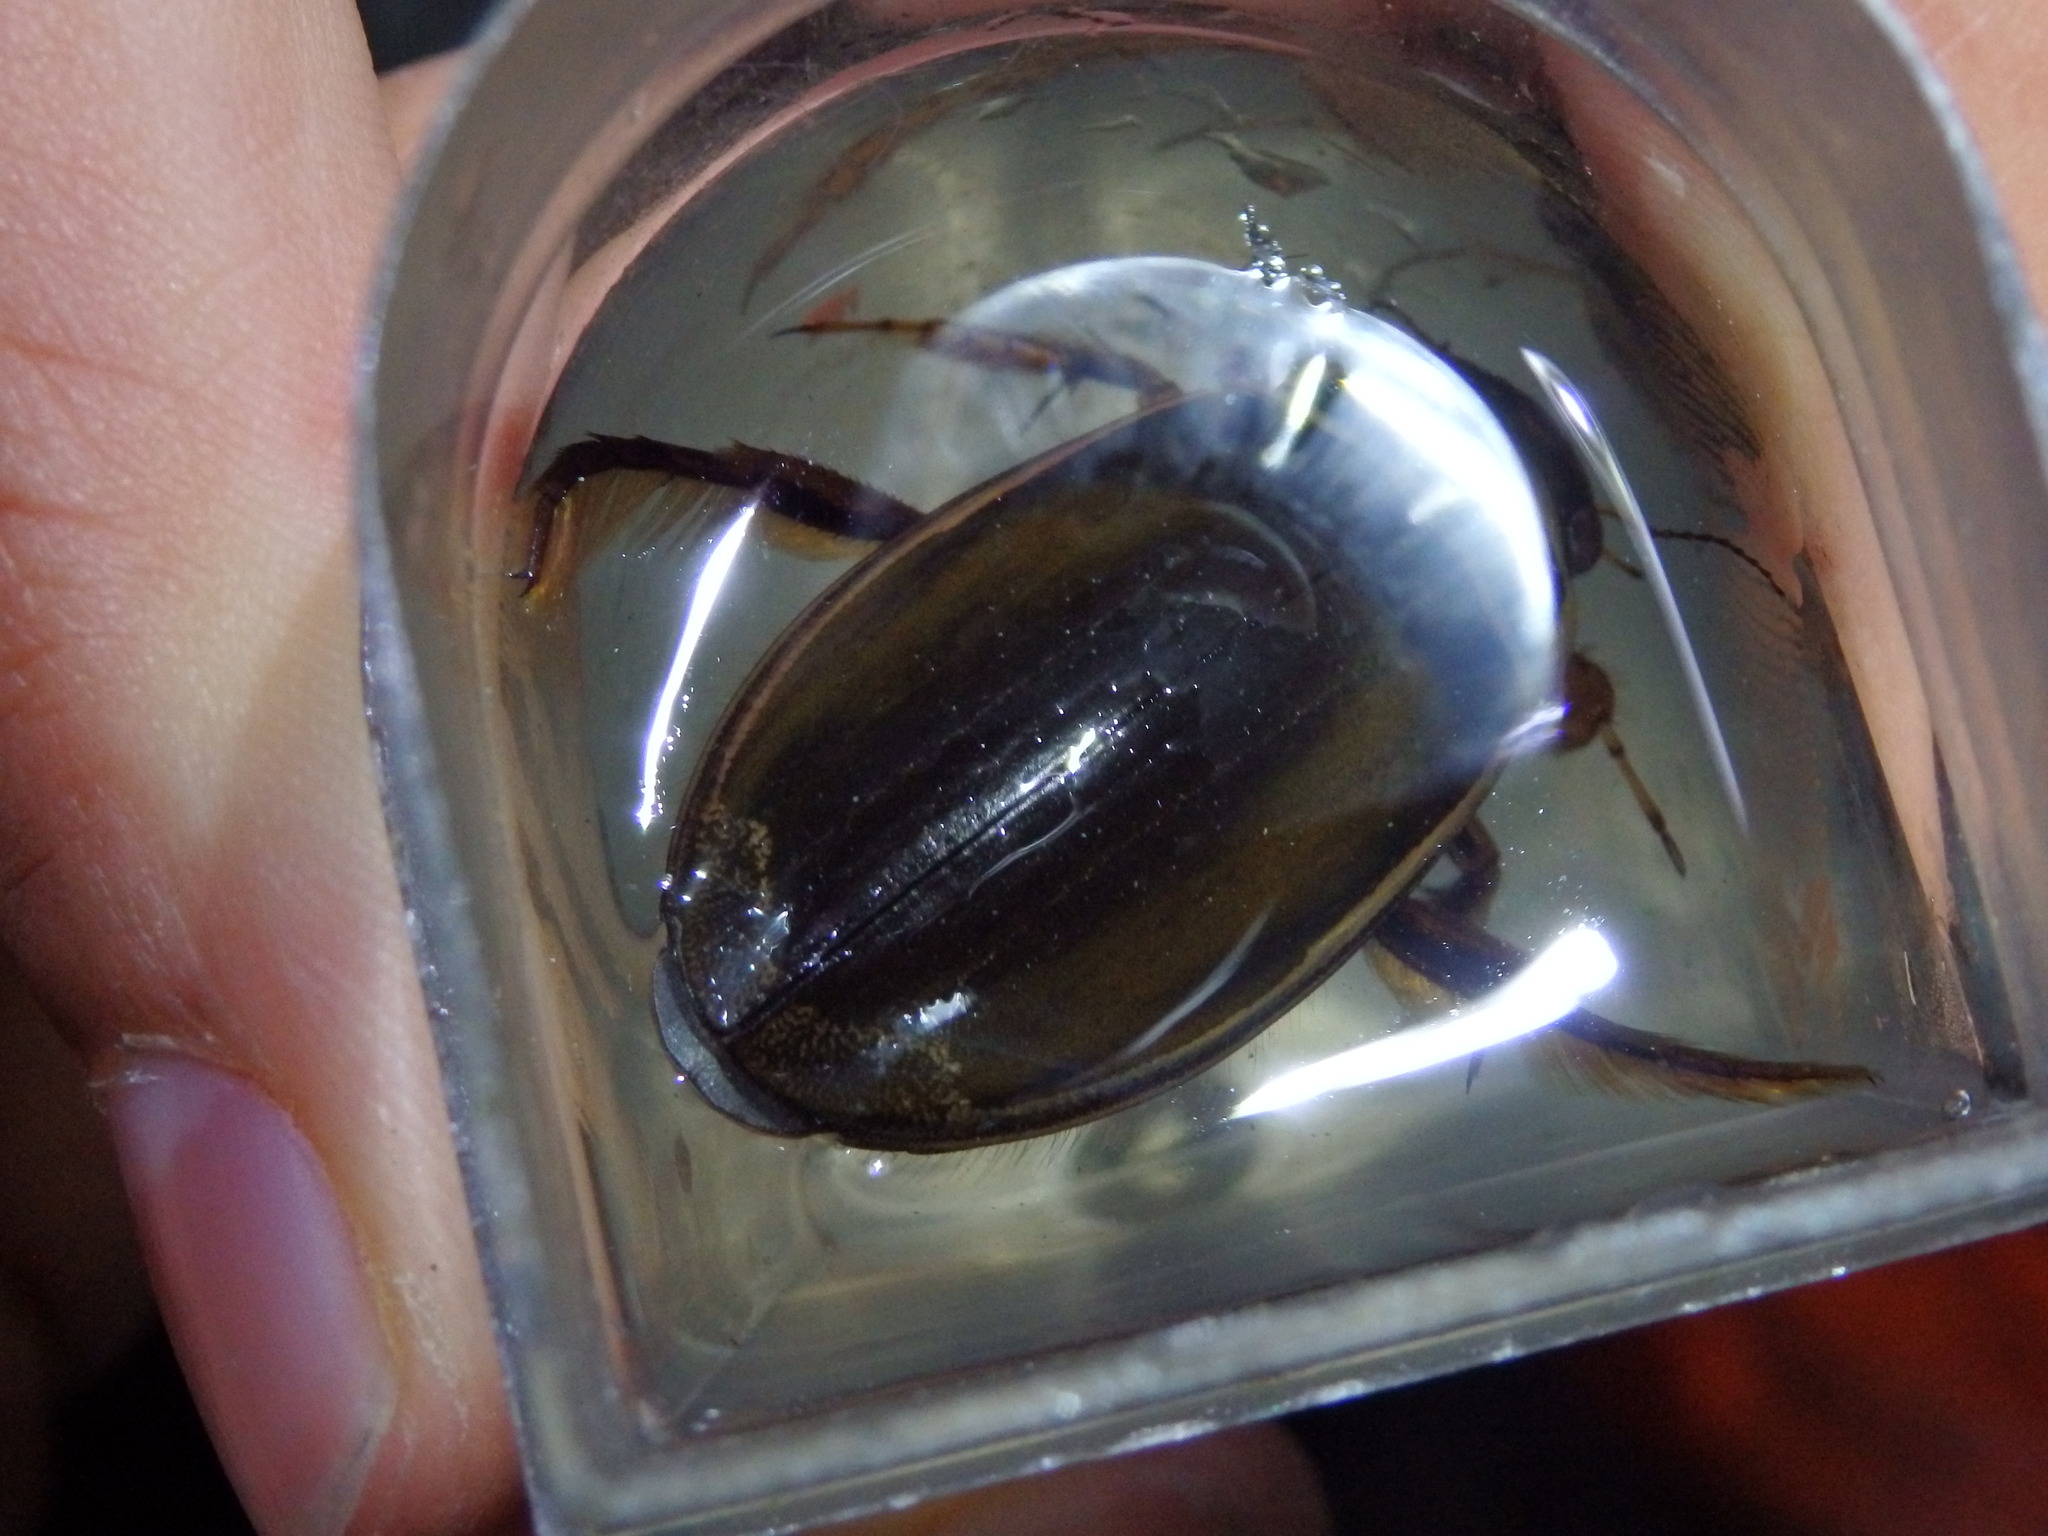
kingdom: Animalia
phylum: Arthropoda
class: Insecta
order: Coleoptera
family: Dytiscidae
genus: Dytiscus
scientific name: Dytiscus marginalis
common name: Great water beetle
